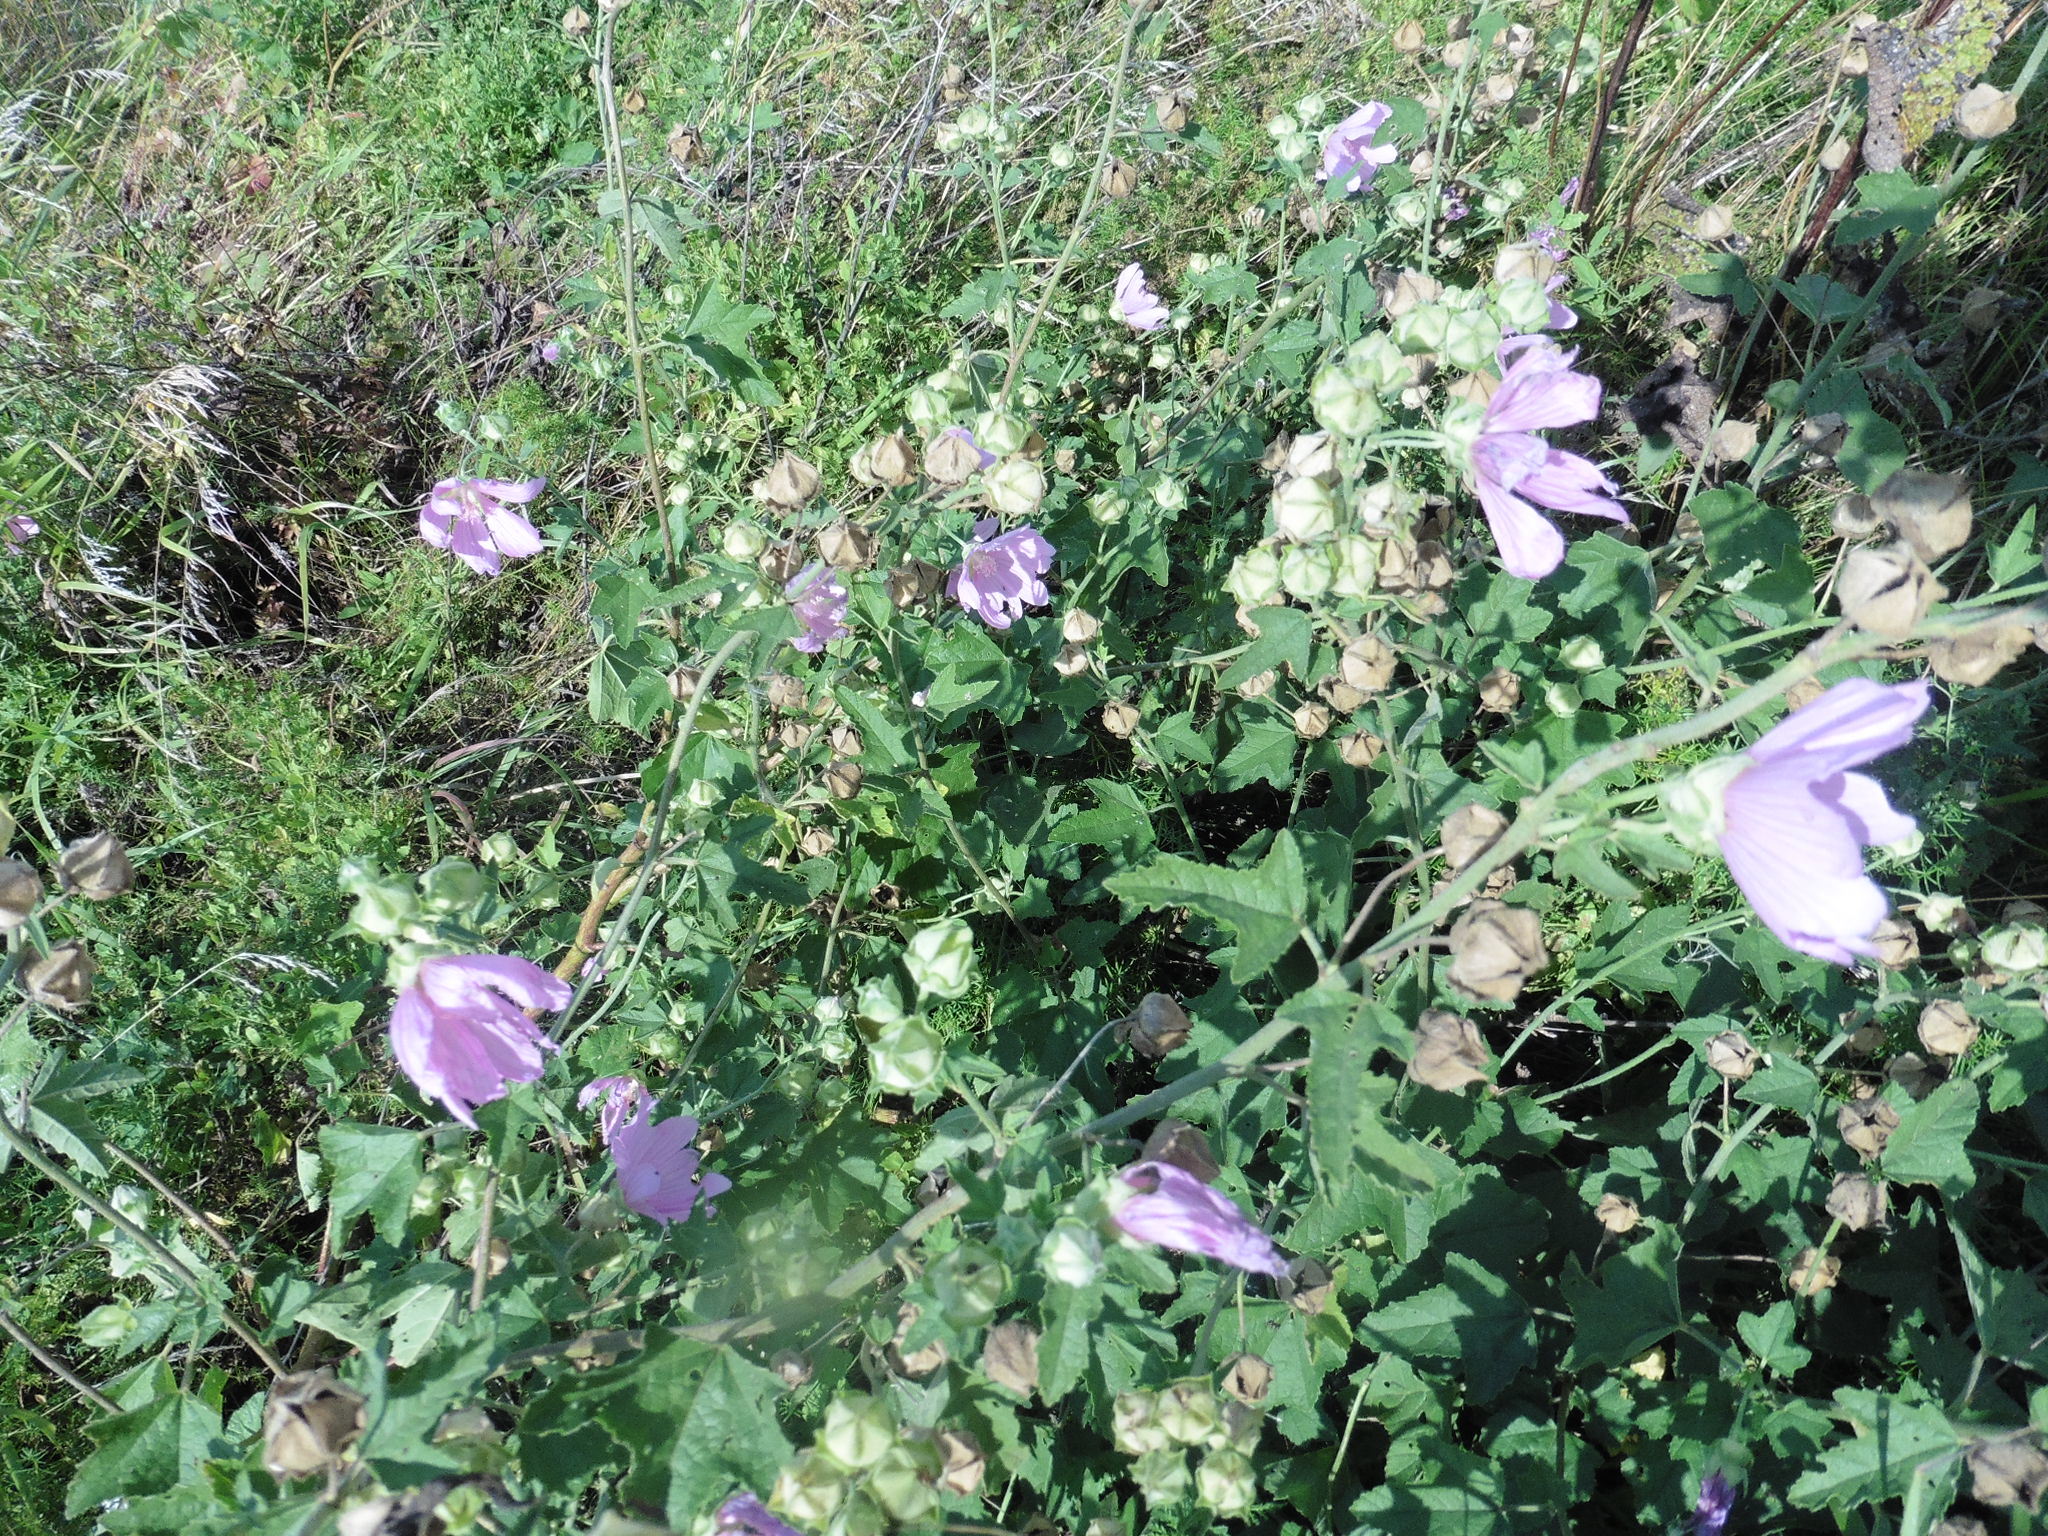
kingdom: Plantae
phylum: Tracheophyta
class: Magnoliopsida
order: Malvales
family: Malvaceae
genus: Malva
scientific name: Malva thuringiaca
